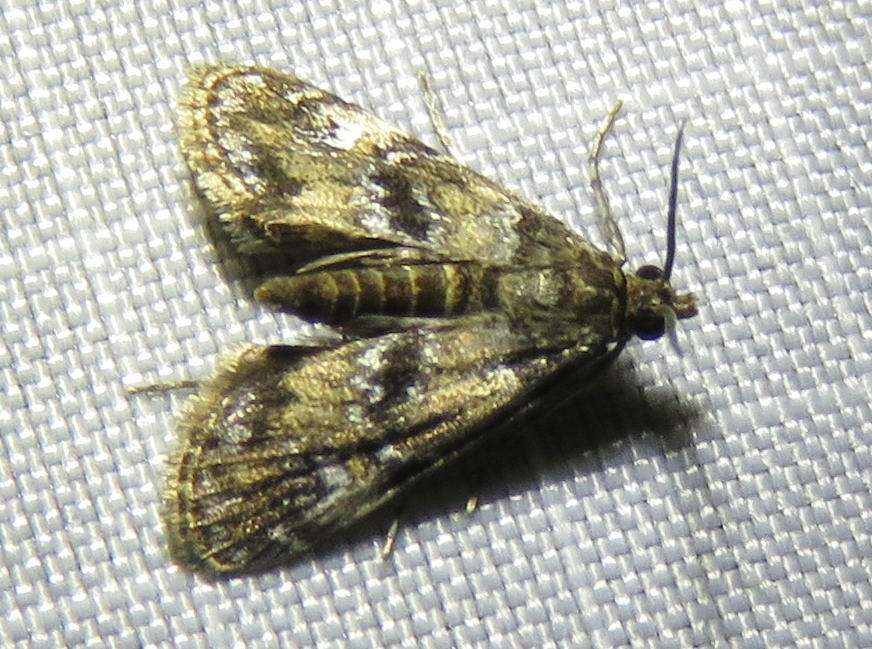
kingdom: Animalia
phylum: Arthropoda
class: Insecta
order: Lepidoptera
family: Crambidae
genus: Elophila
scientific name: Elophila obliteralis
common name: Waterlily leafcutter moth
